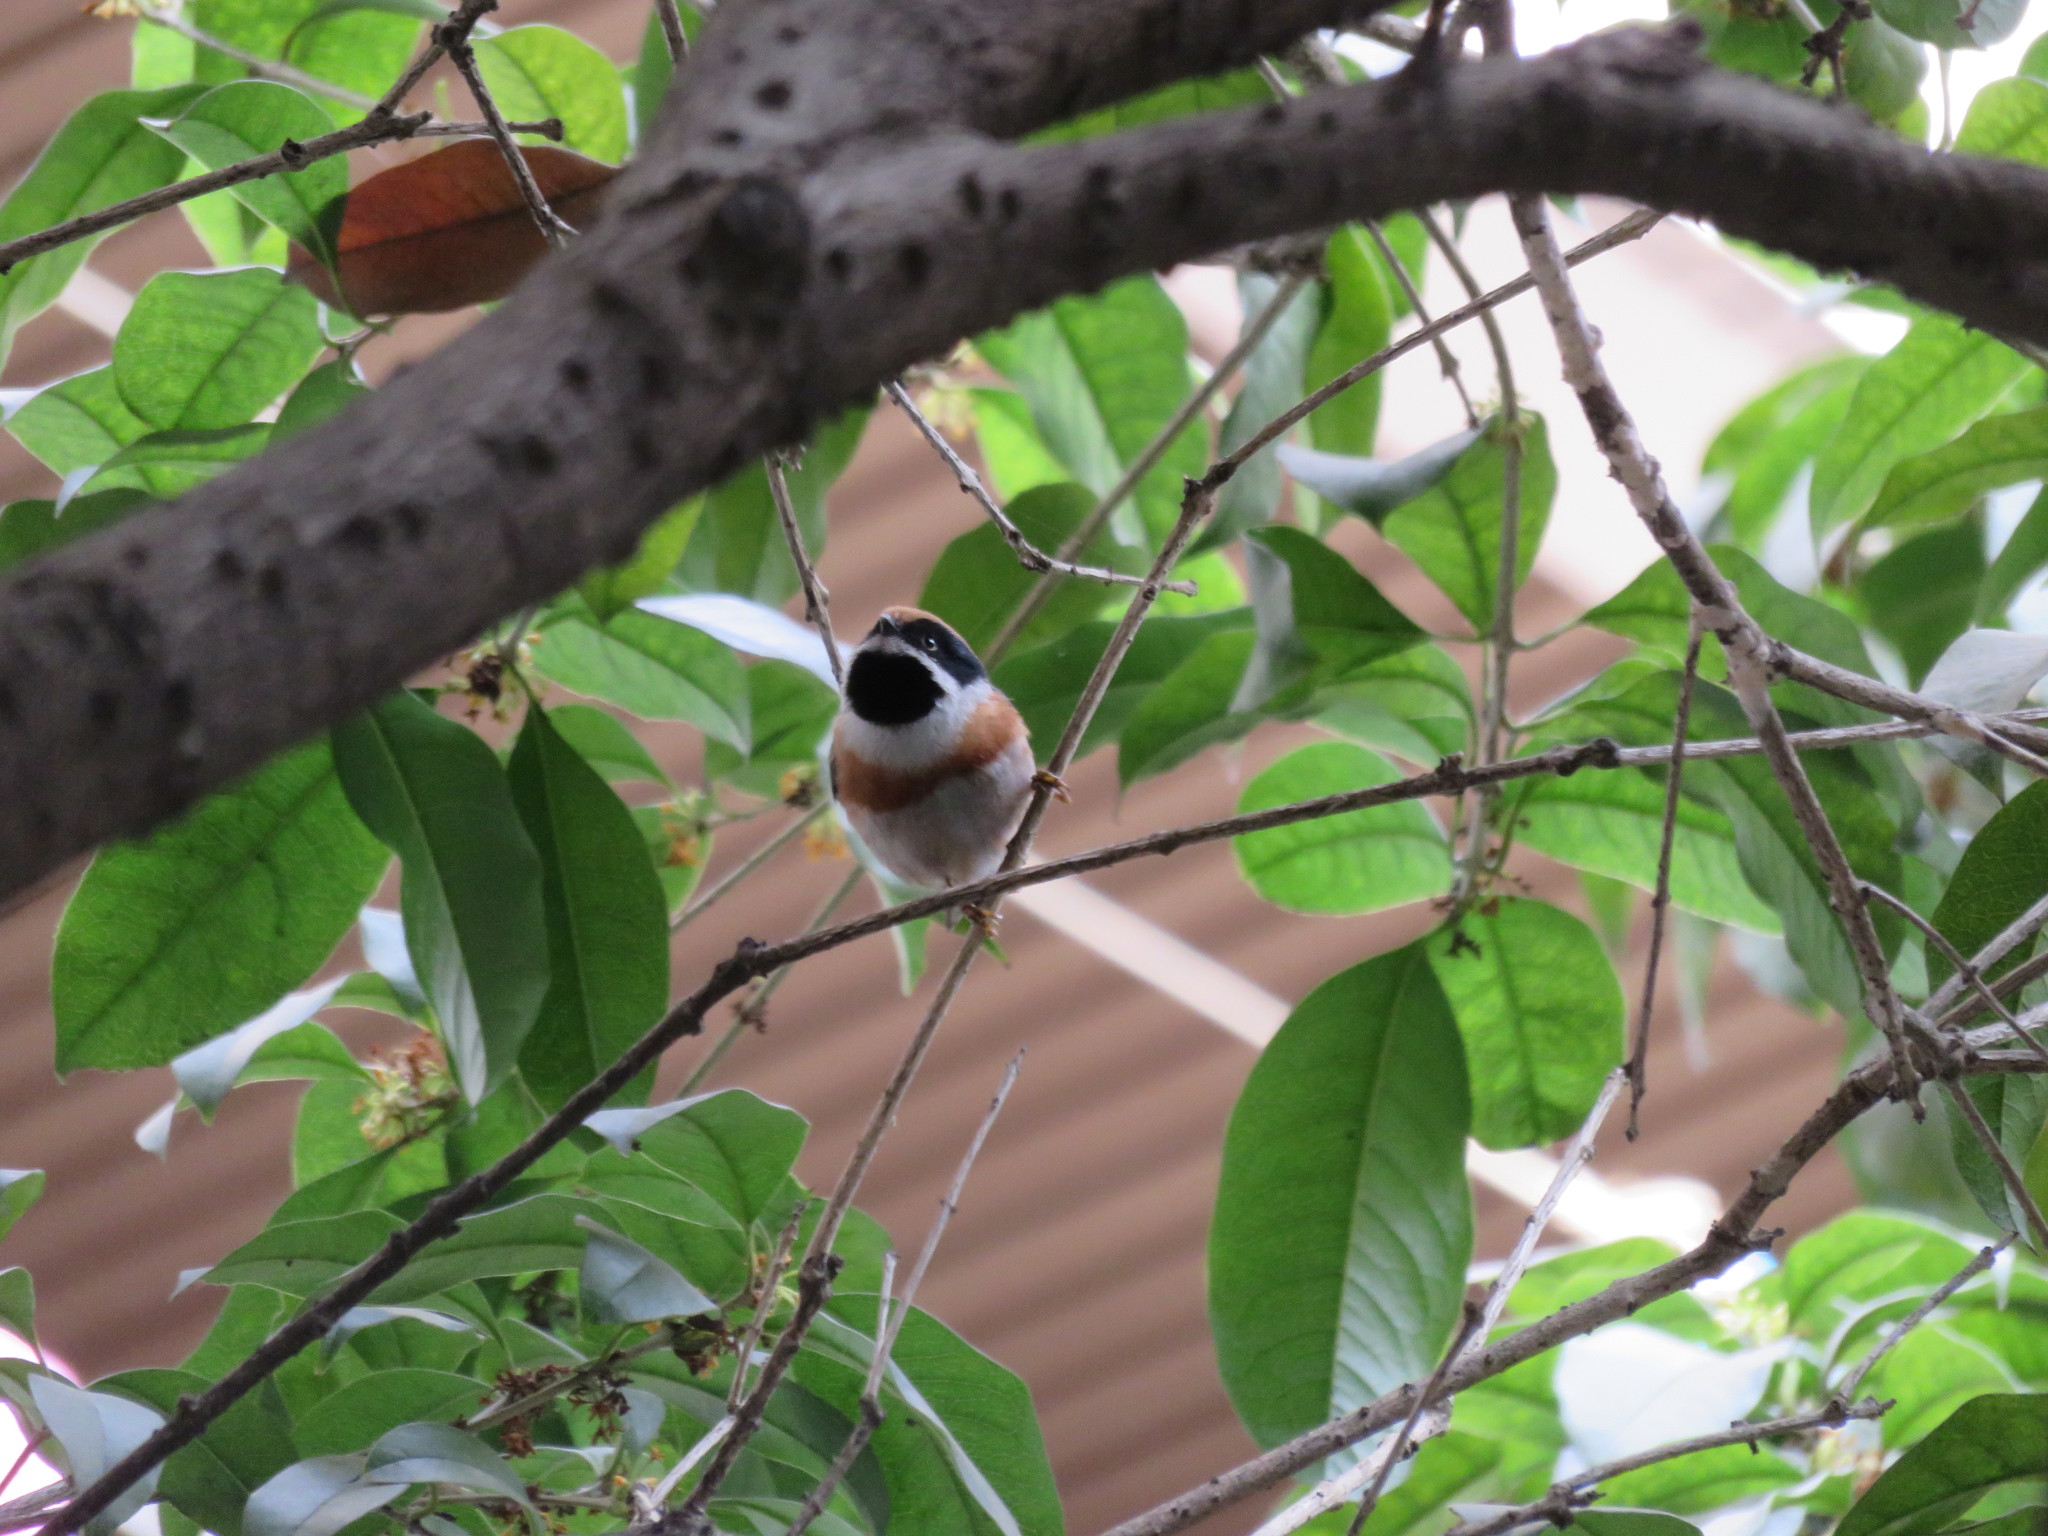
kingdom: Animalia
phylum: Chordata
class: Aves
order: Passeriformes
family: Aegithalidae
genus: Aegithalos
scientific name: Aegithalos concinnus
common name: Black-throated bushtit
